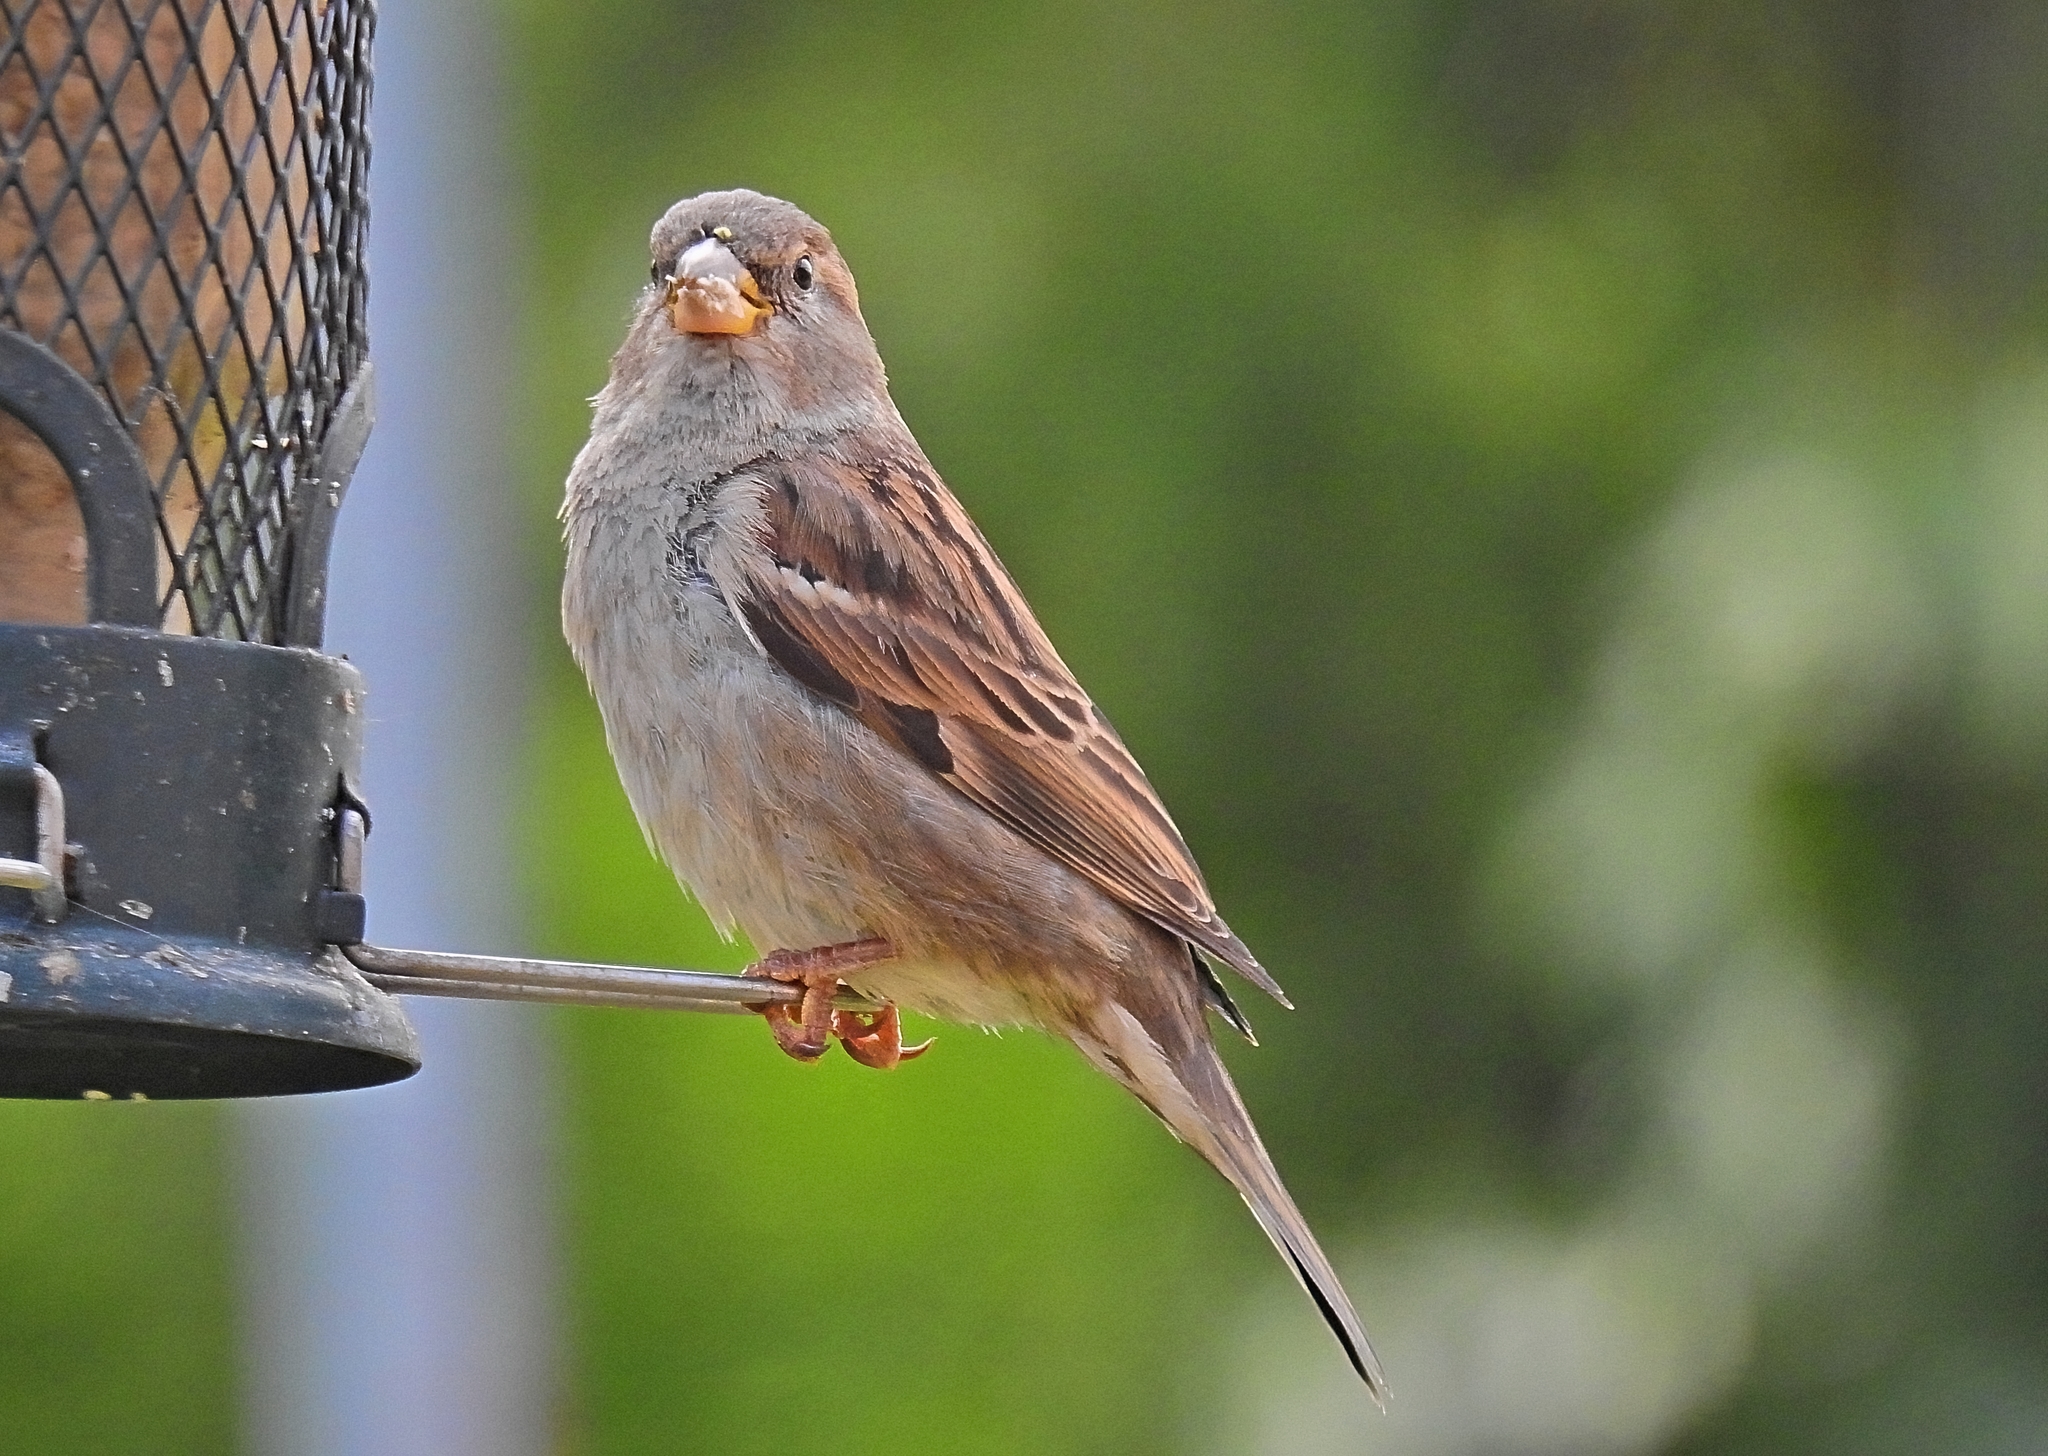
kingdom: Animalia
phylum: Chordata
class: Aves
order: Passeriformes
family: Passeridae
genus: Passer
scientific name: Passer domesticus
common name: House sparrow
